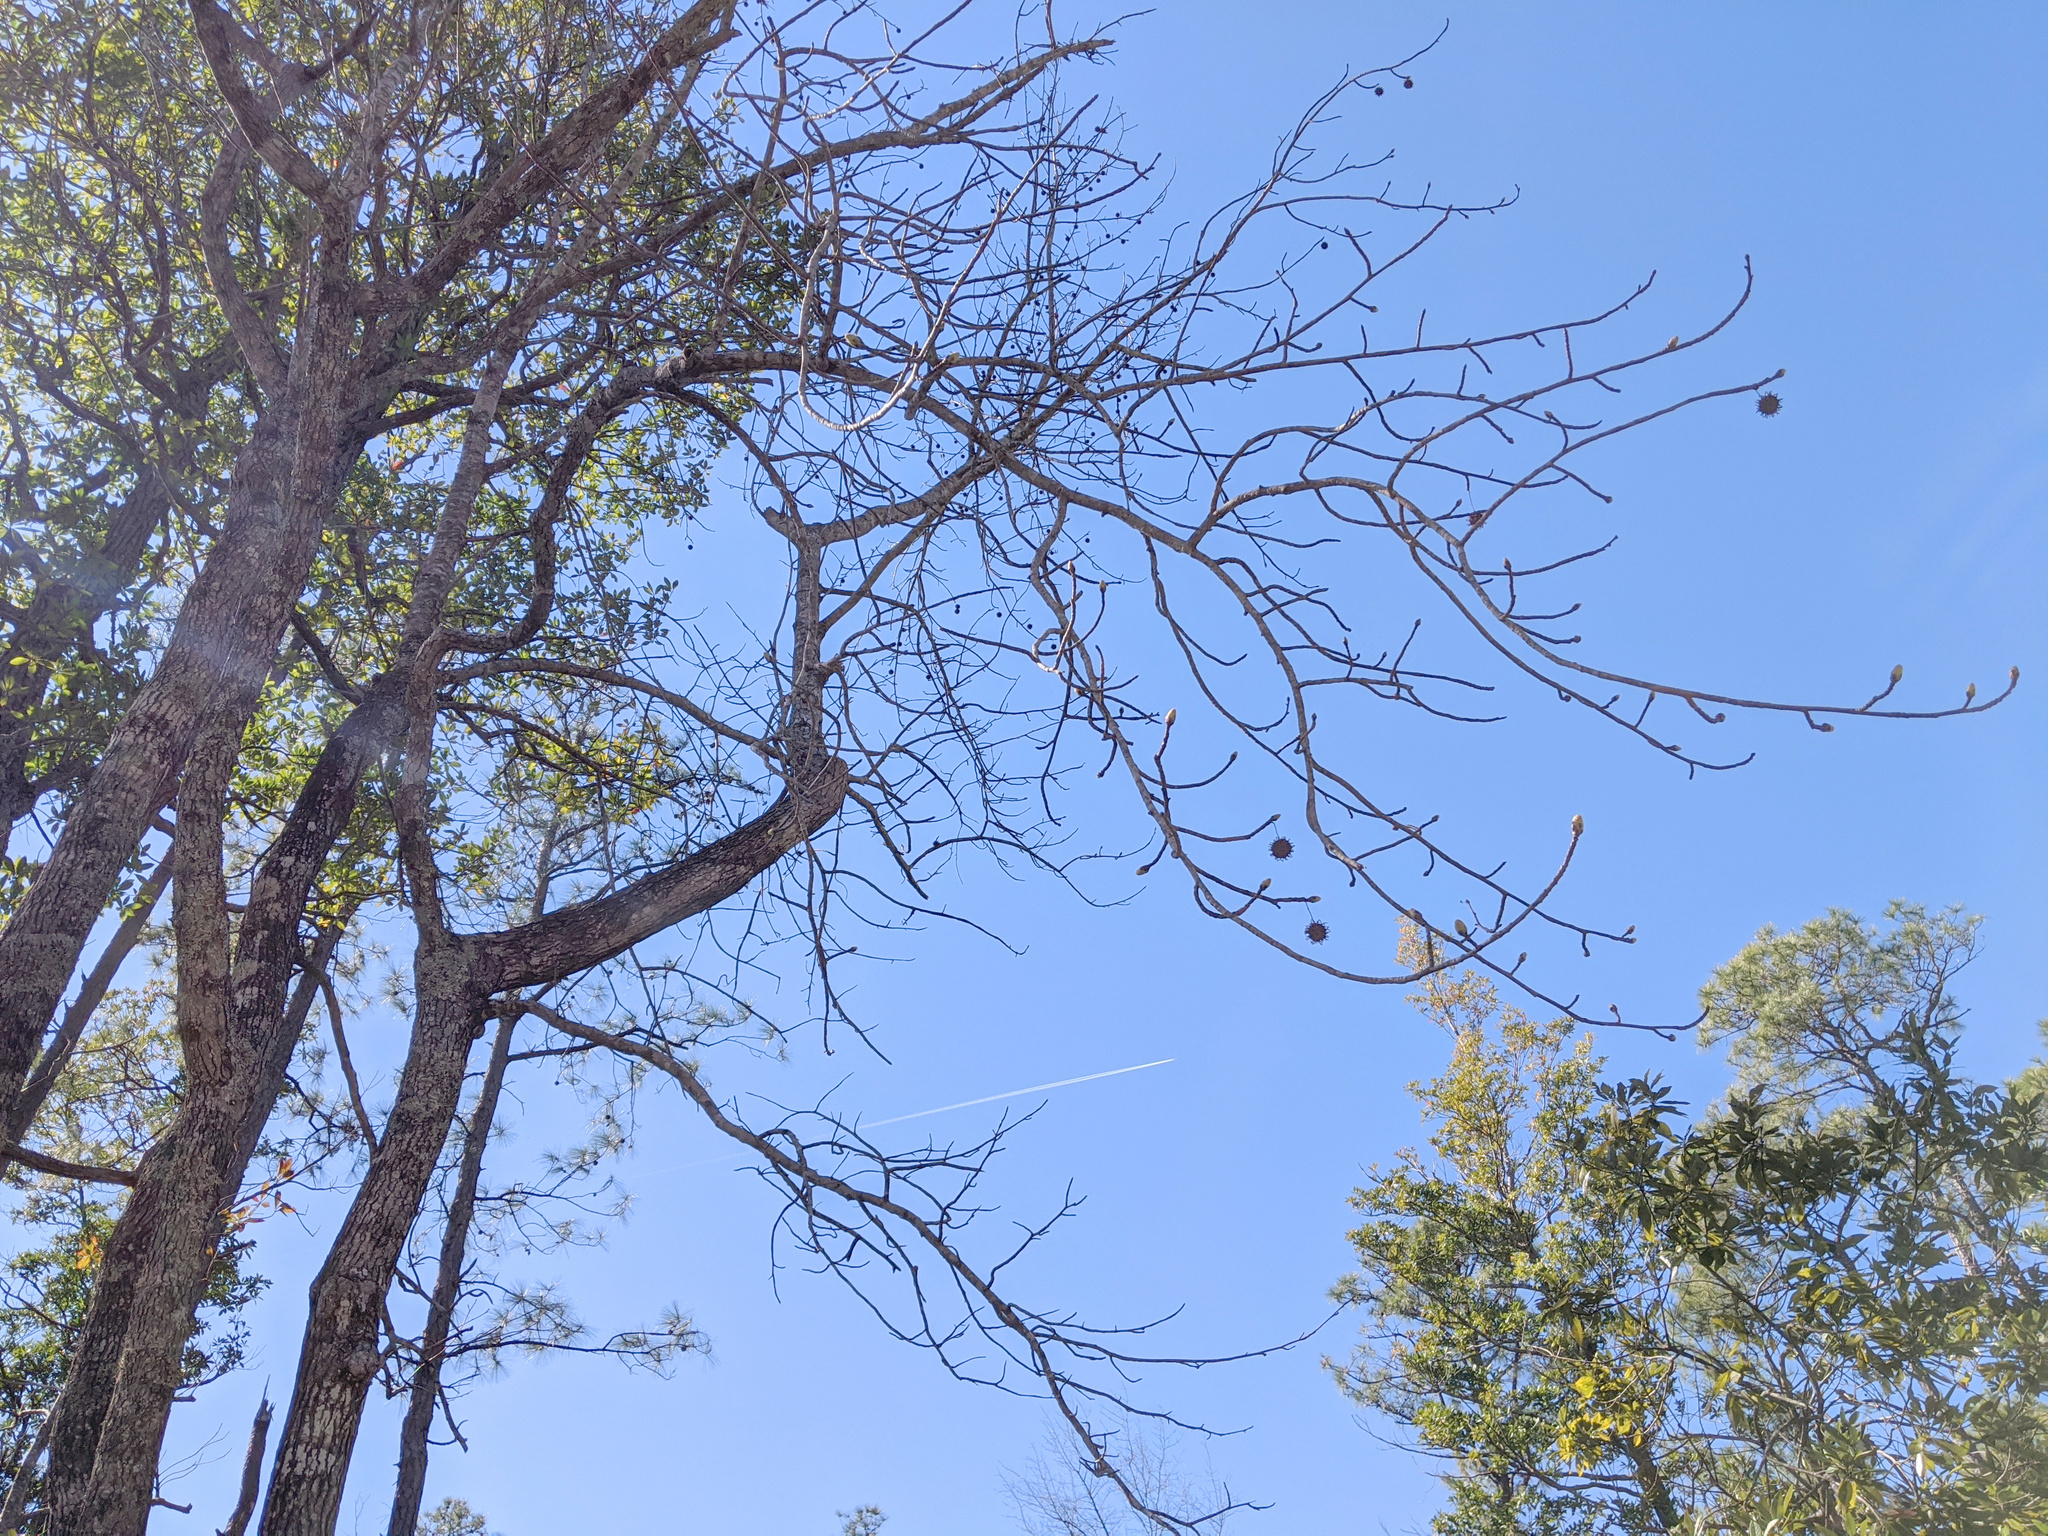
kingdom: Plantae
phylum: Tracheophyta
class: Magnoliopsida
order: Saxifragales
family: Altingiaceae
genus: Liquidambar
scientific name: Liquidambar styraciflua
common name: Sweet gum
